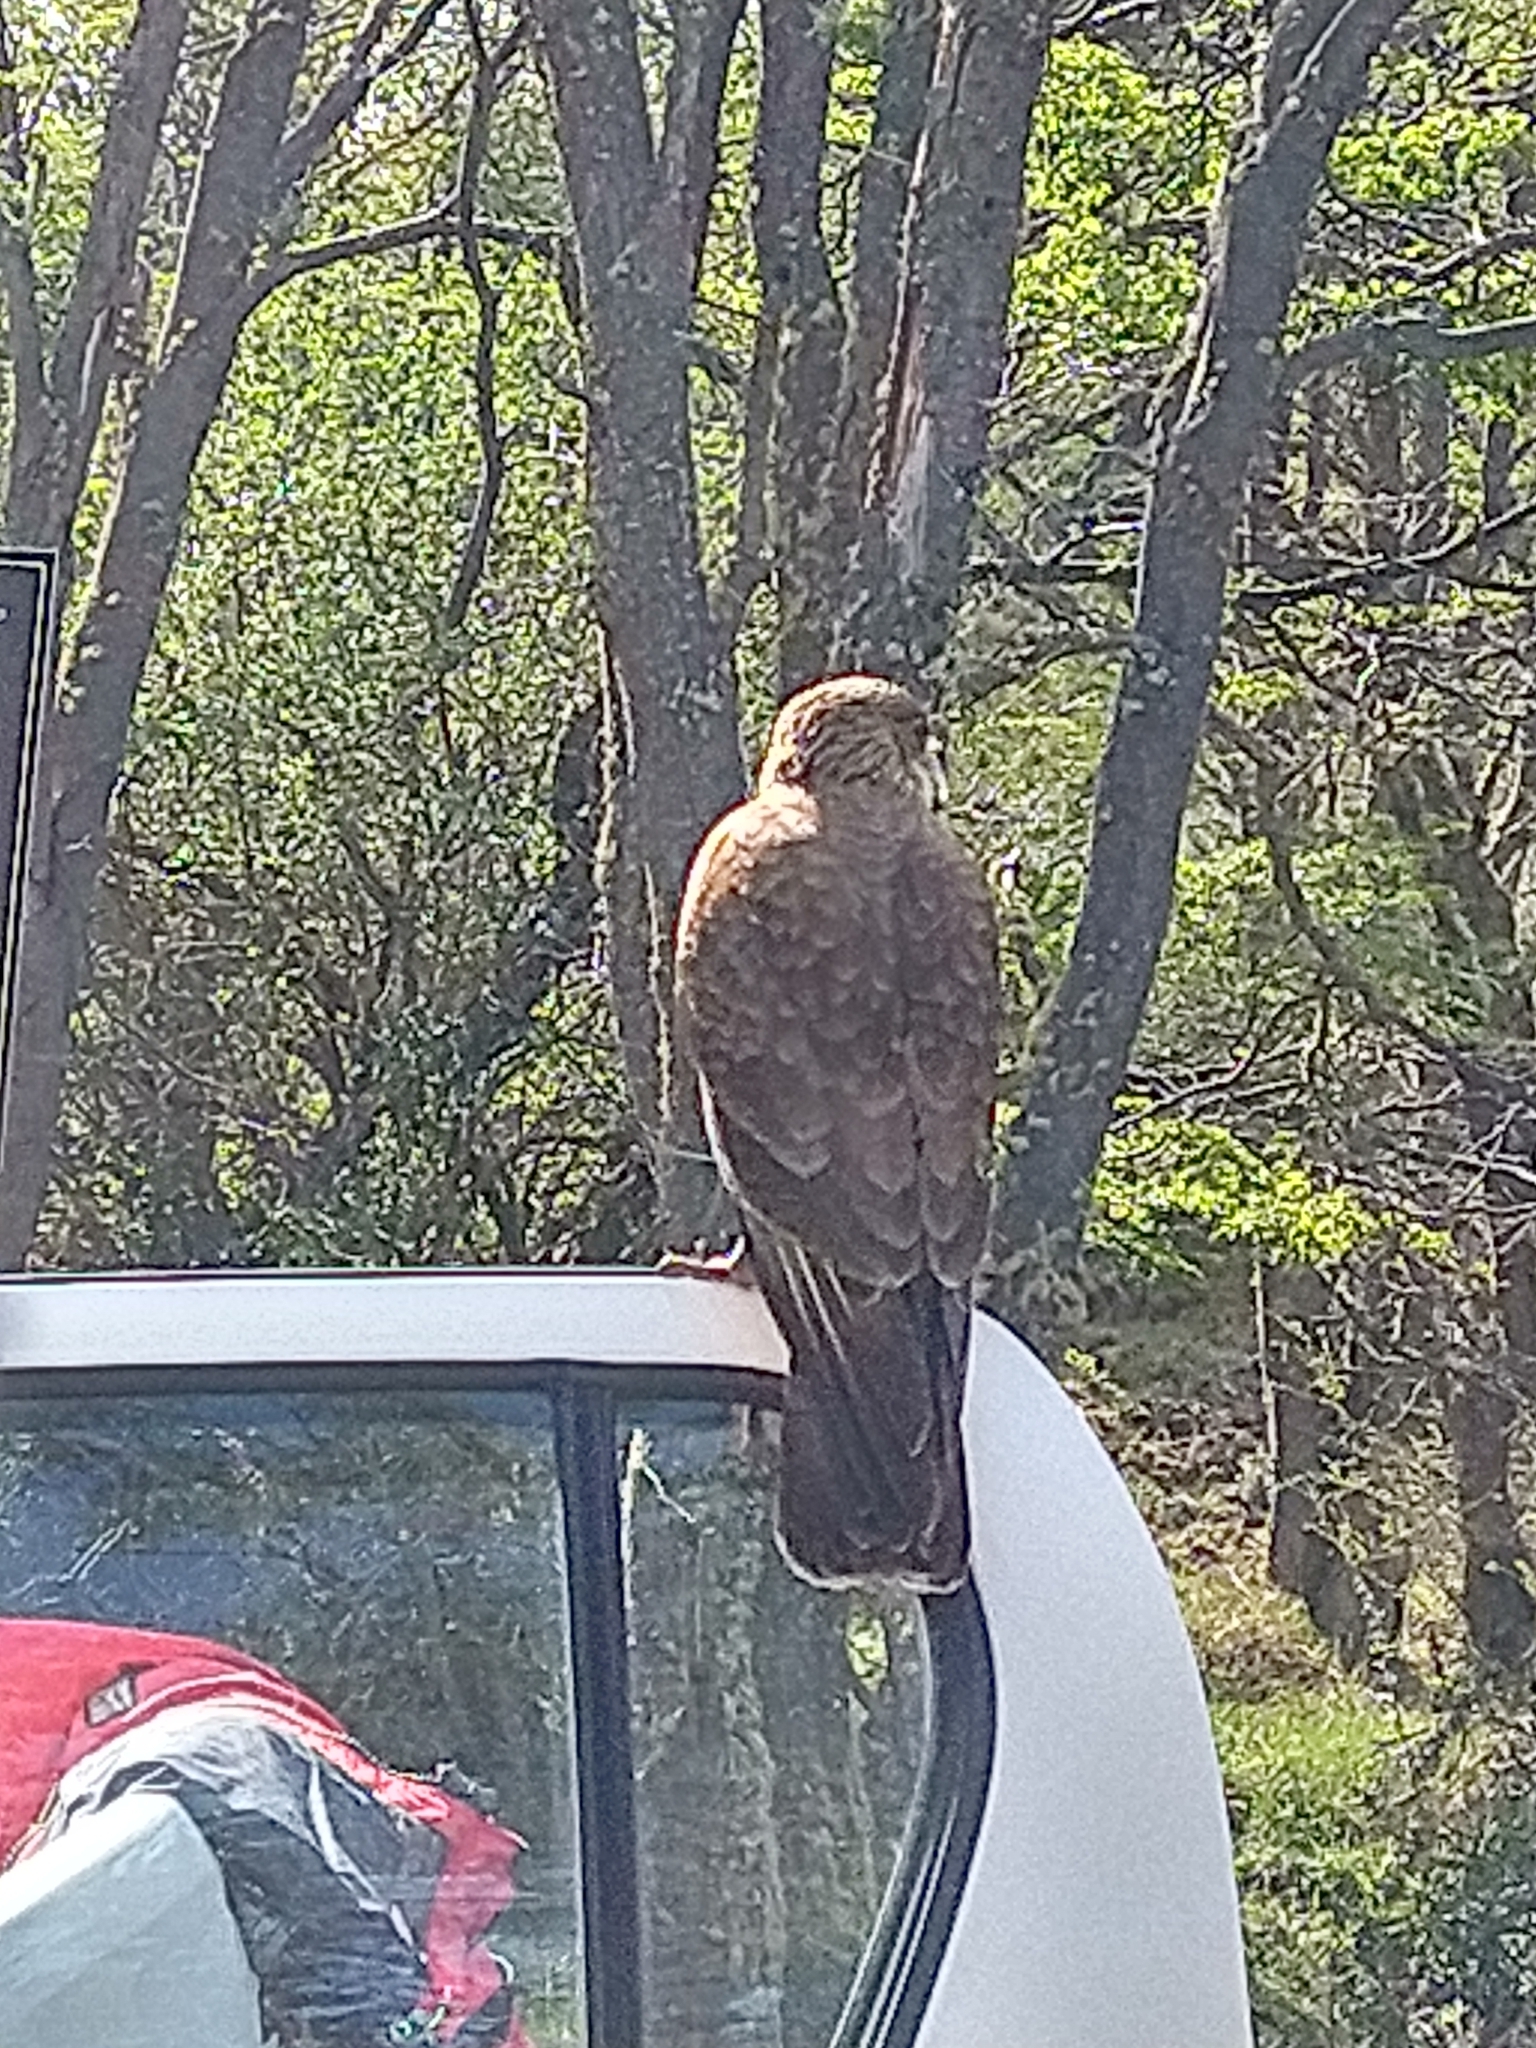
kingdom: Animalia
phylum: Chordata
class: Aves
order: Falconiformes
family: Falconidae
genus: Daptrius
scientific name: Daptrius
